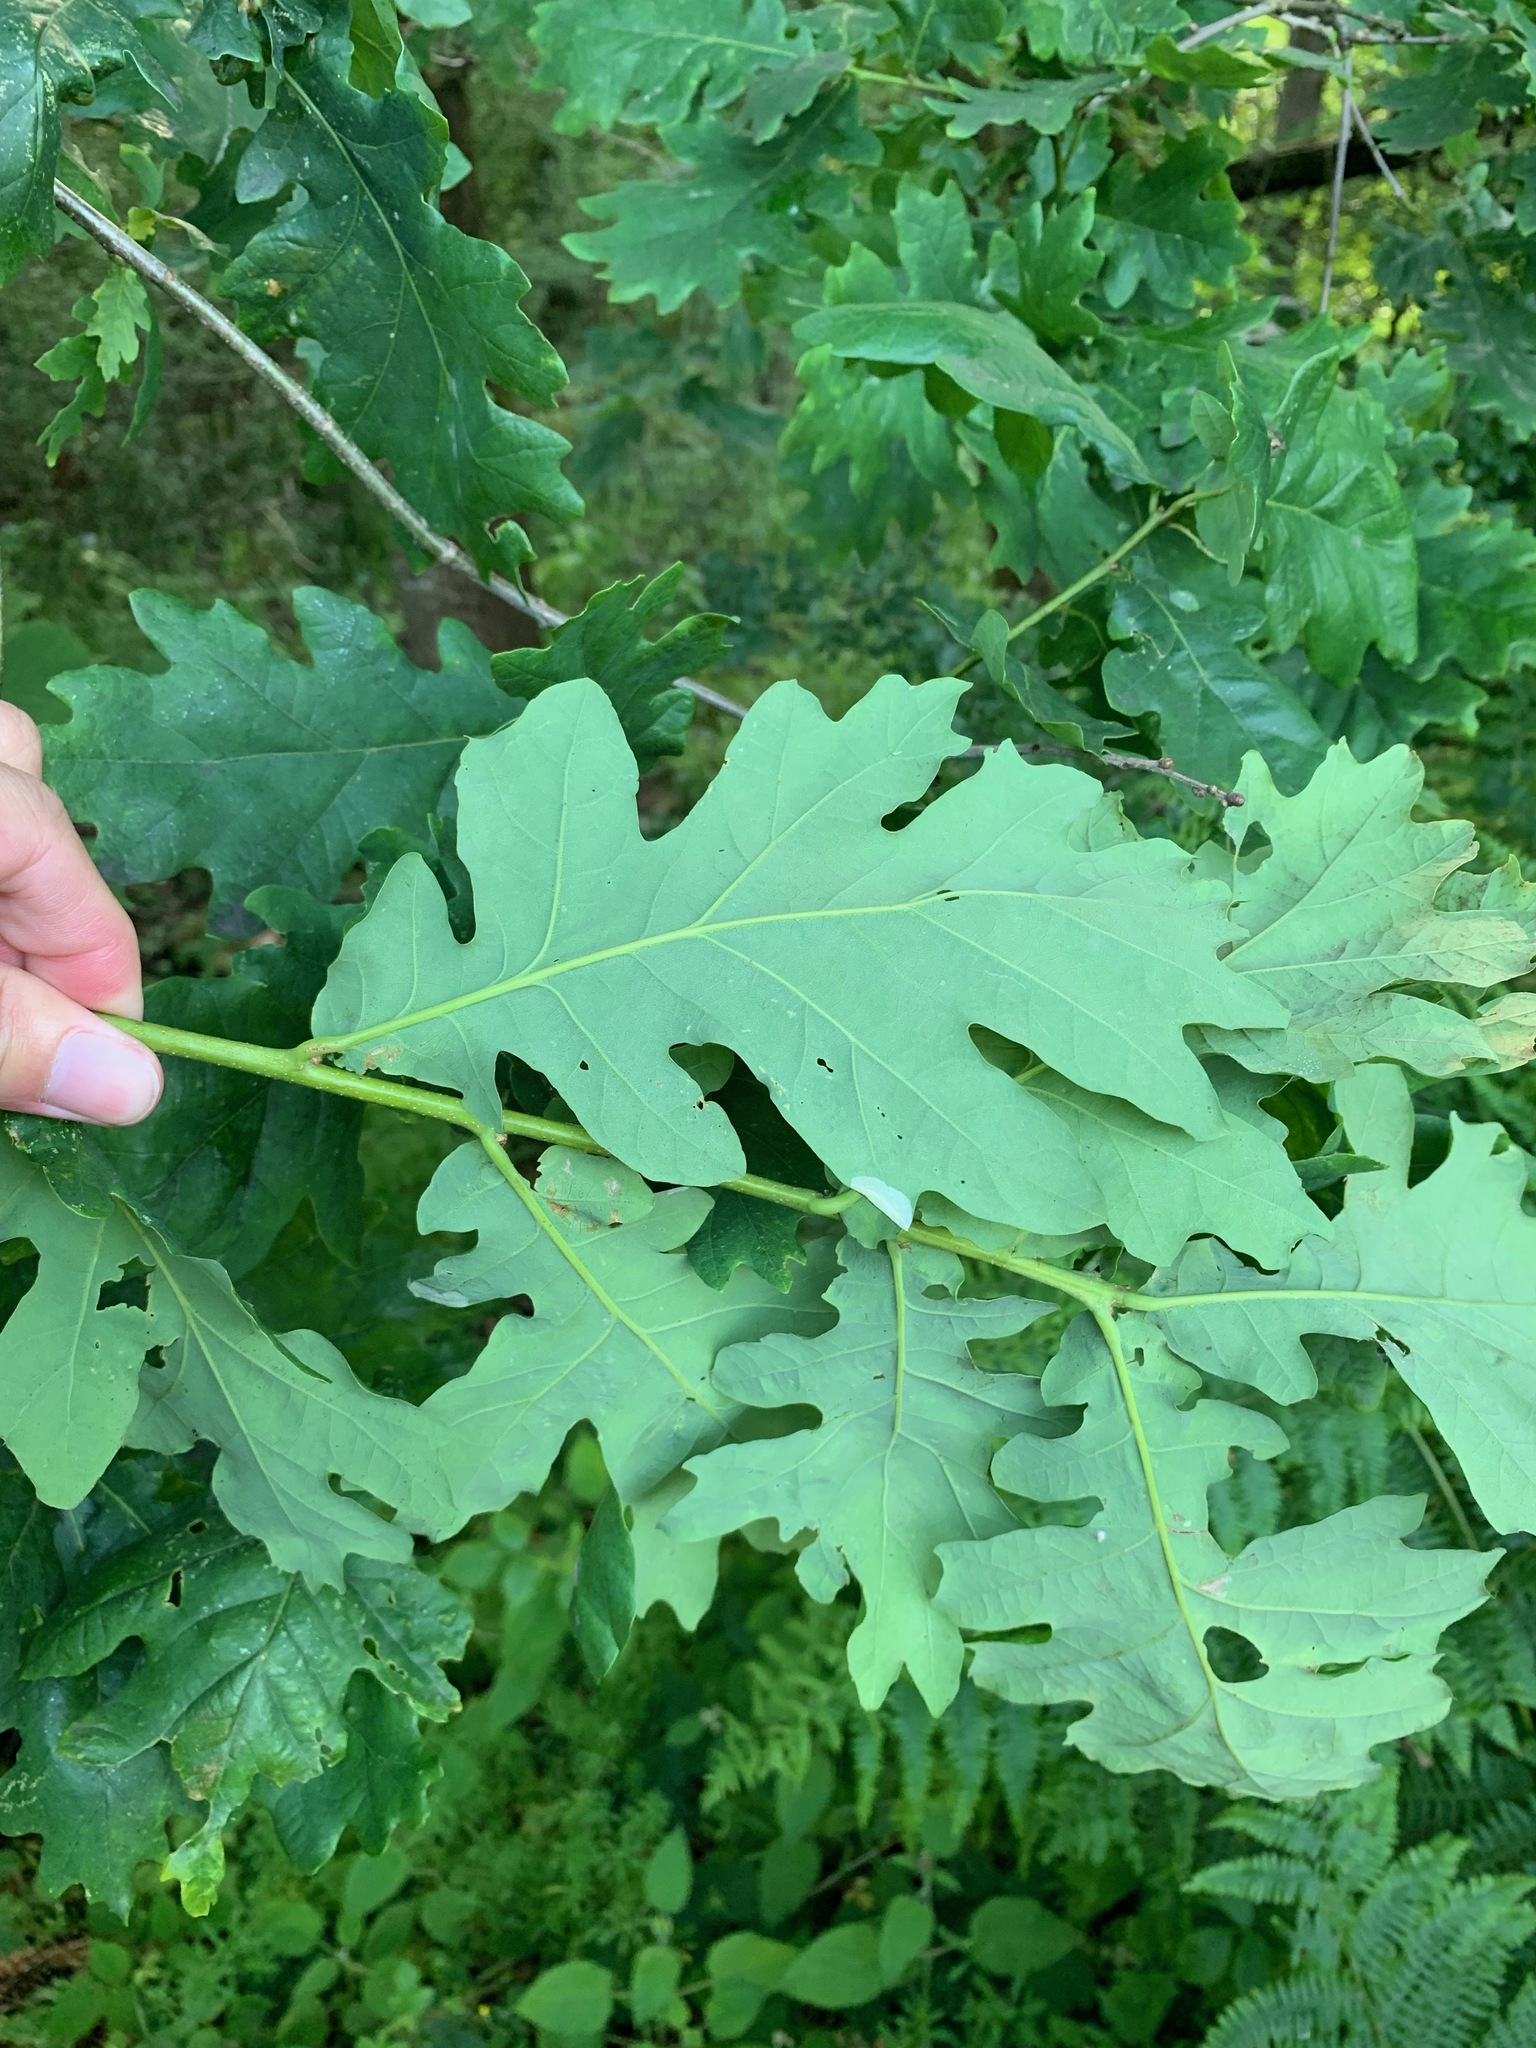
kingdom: Plantae
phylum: Tracheophyta
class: Magnoliopsida
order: Fagales
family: Fagaceae
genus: Quercus
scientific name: Quercus robur
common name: Pedunculate oak
